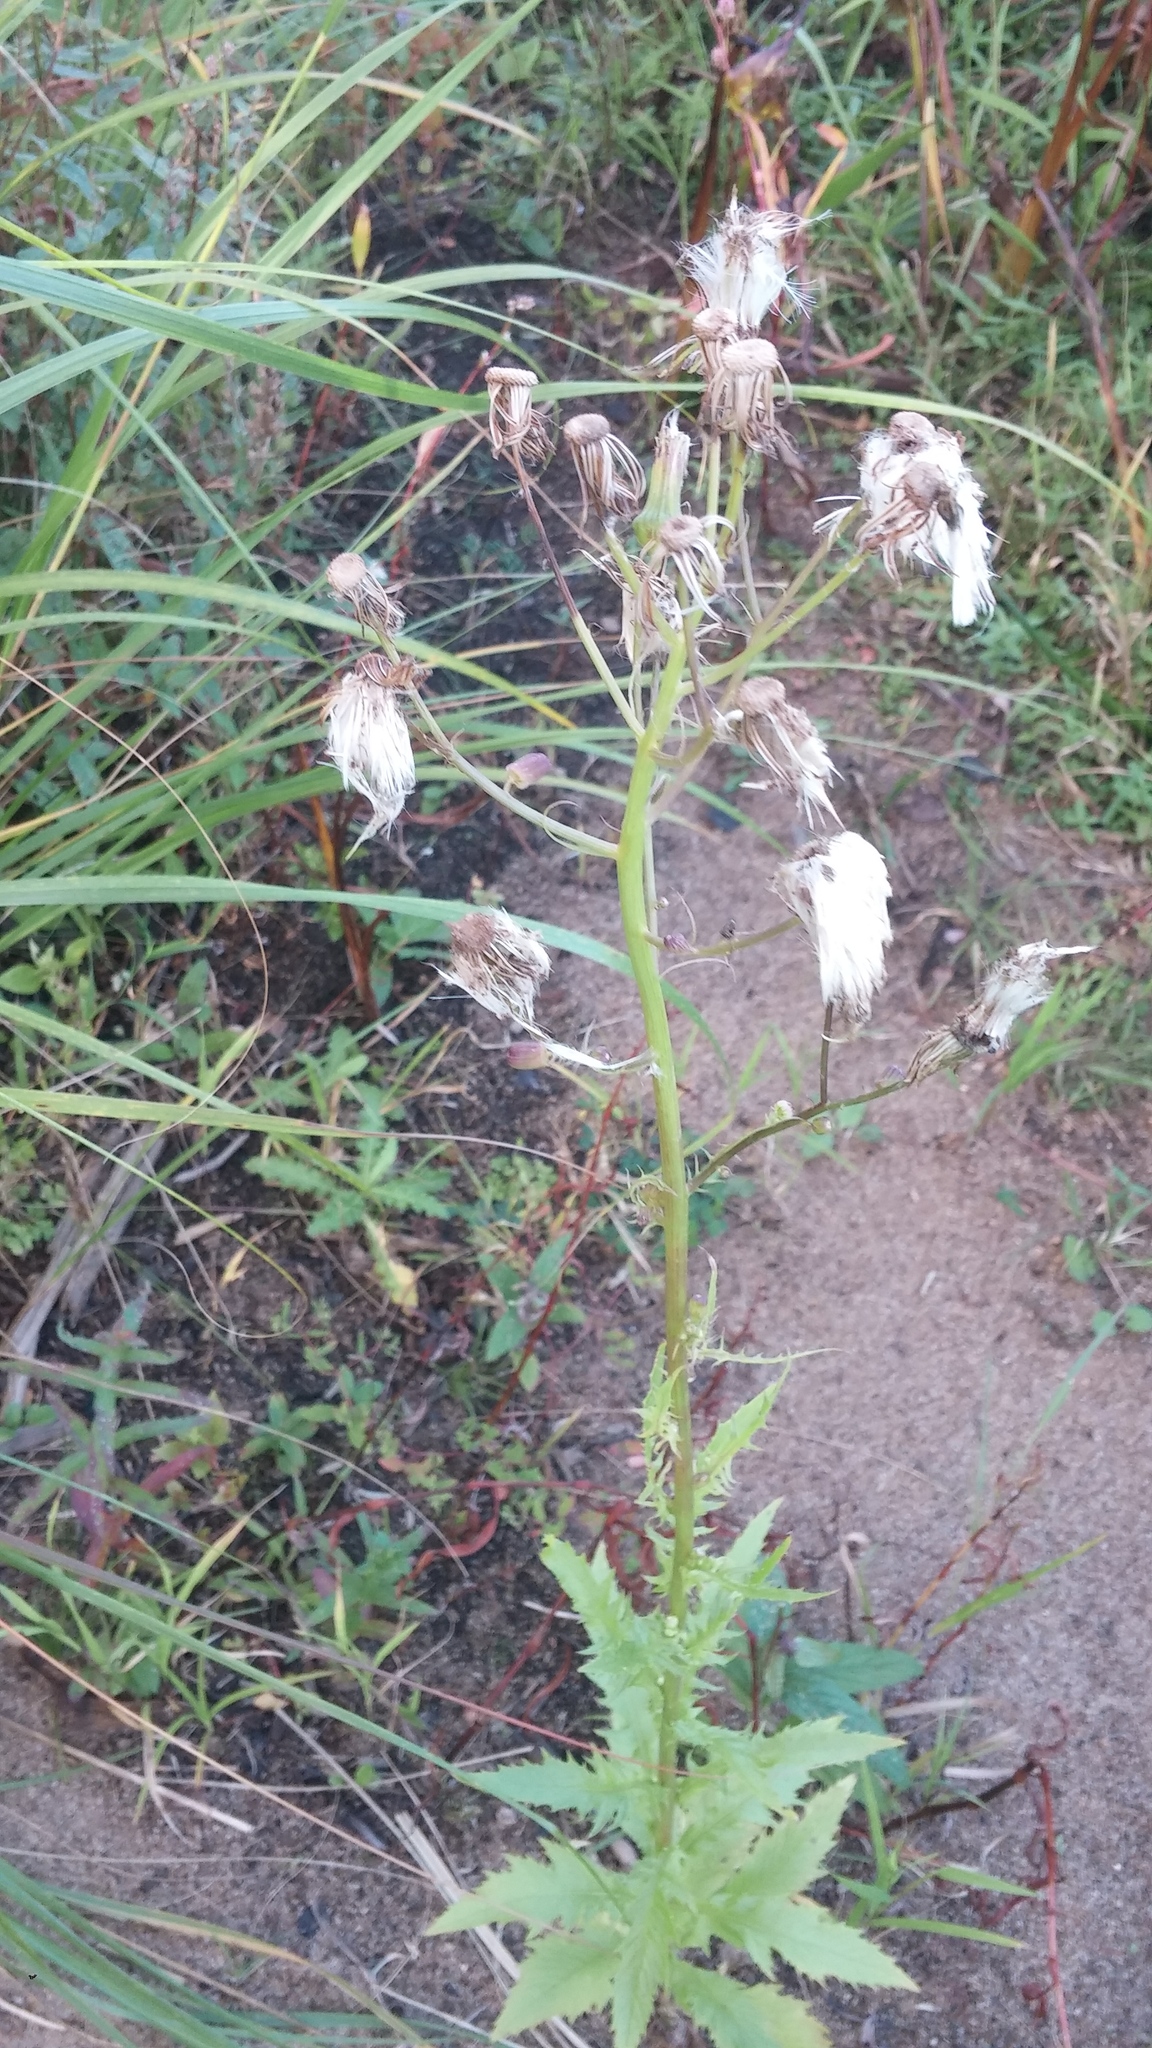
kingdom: Plantae
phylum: Tracheophyta
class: Magnoliopsida
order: Asterales
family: Asteraceae
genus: Erechtites
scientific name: Erechtites hieraciifolius
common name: American burnweed
